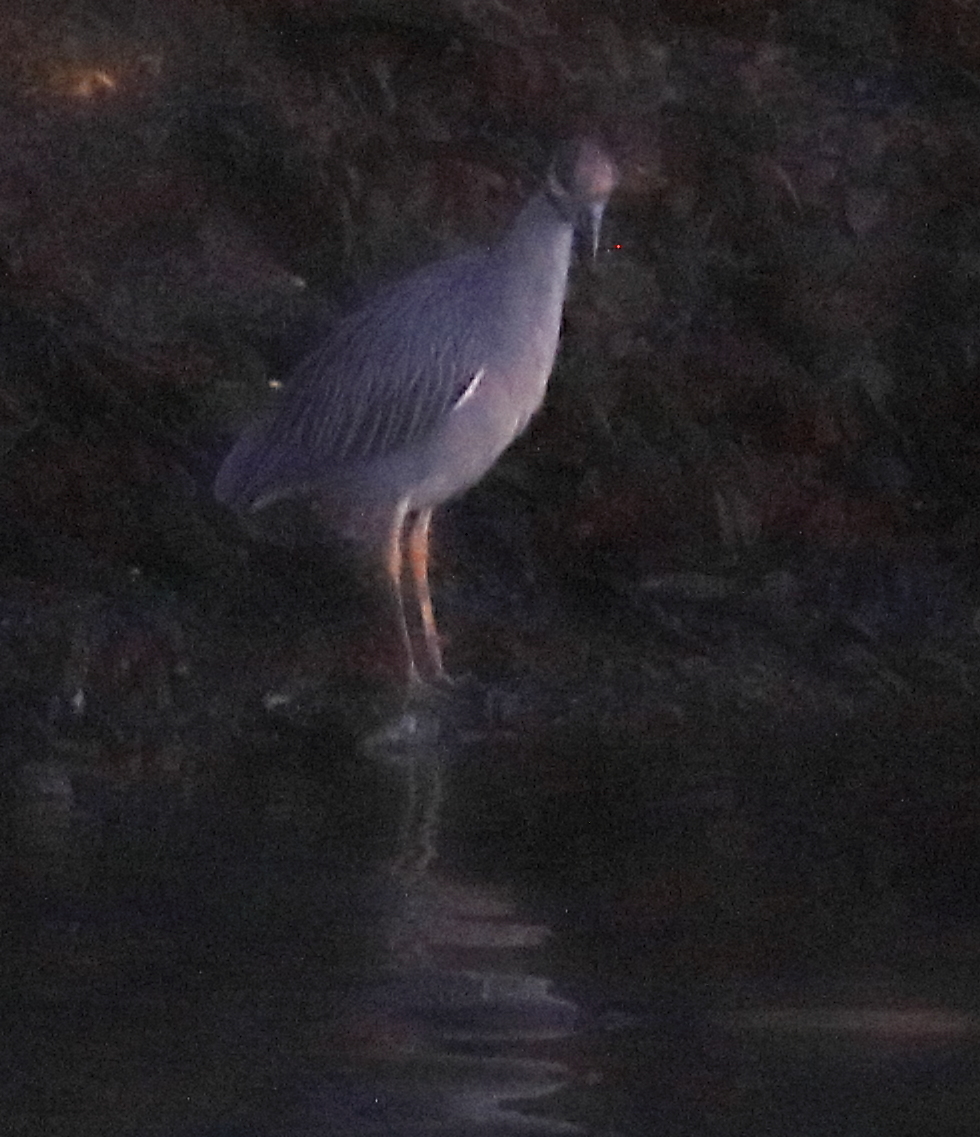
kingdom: Animalia
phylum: Chordata
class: Aves
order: Pelecaniformes
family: Ardeidae
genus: Nyctanassa
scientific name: Nyctanassa violacea
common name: Yellow-crowned night heron
